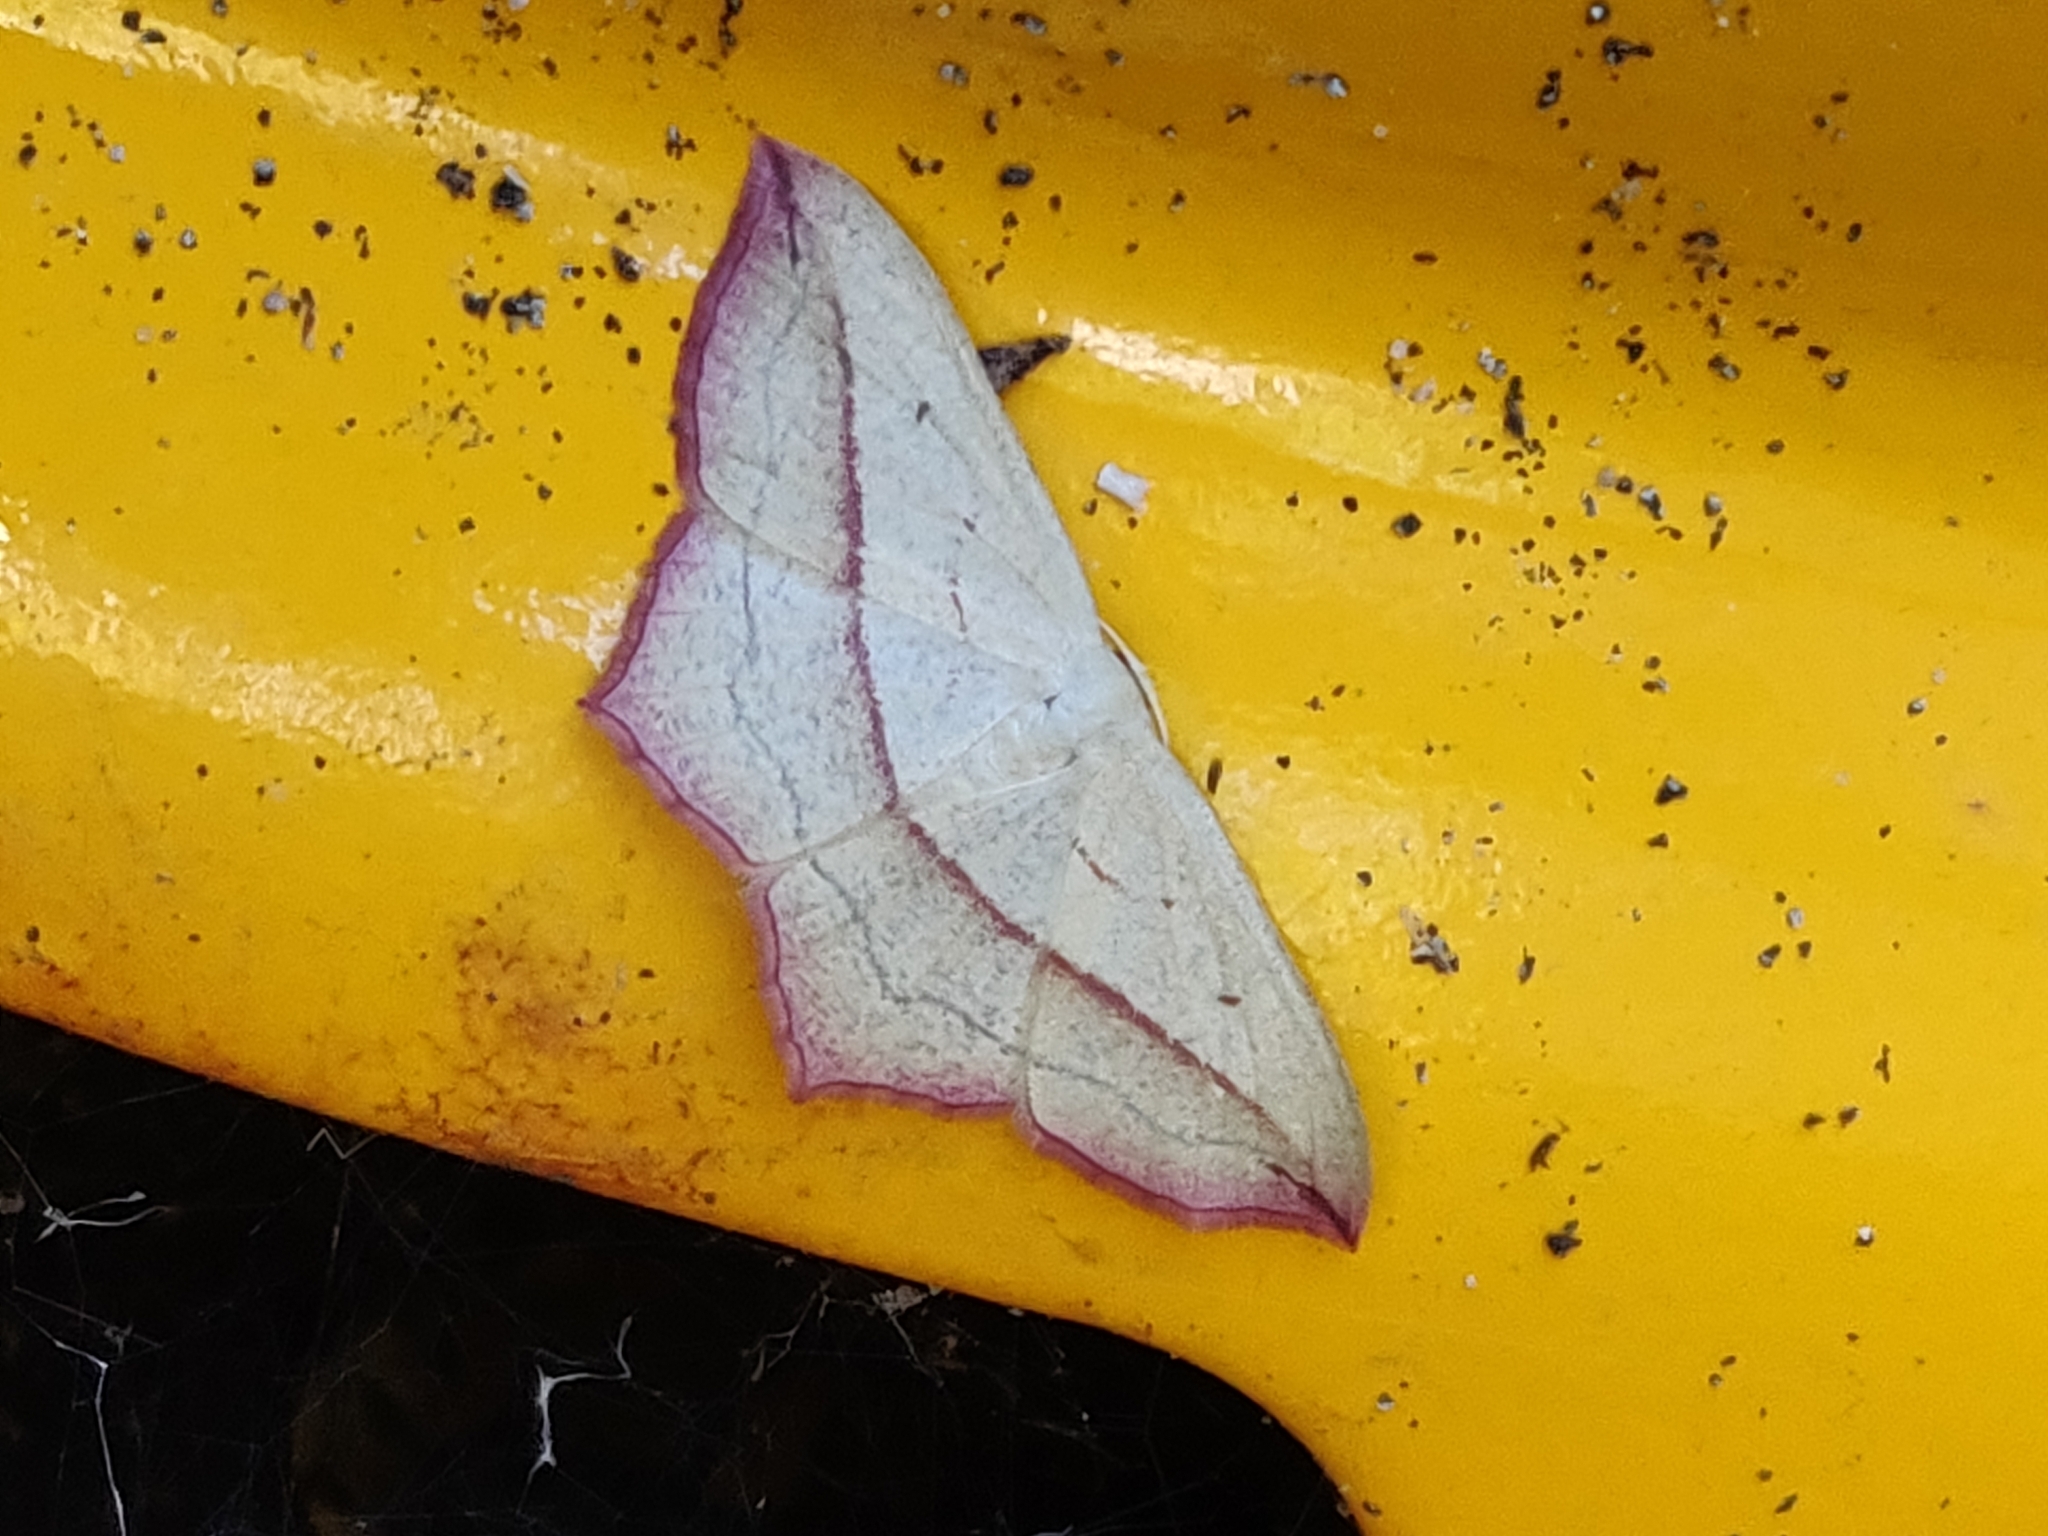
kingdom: Animalia
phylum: Arthropoda
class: Insecta
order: Lepidoptera
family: Geometridae
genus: Timandra
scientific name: Timandra comae
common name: Blood-vein
